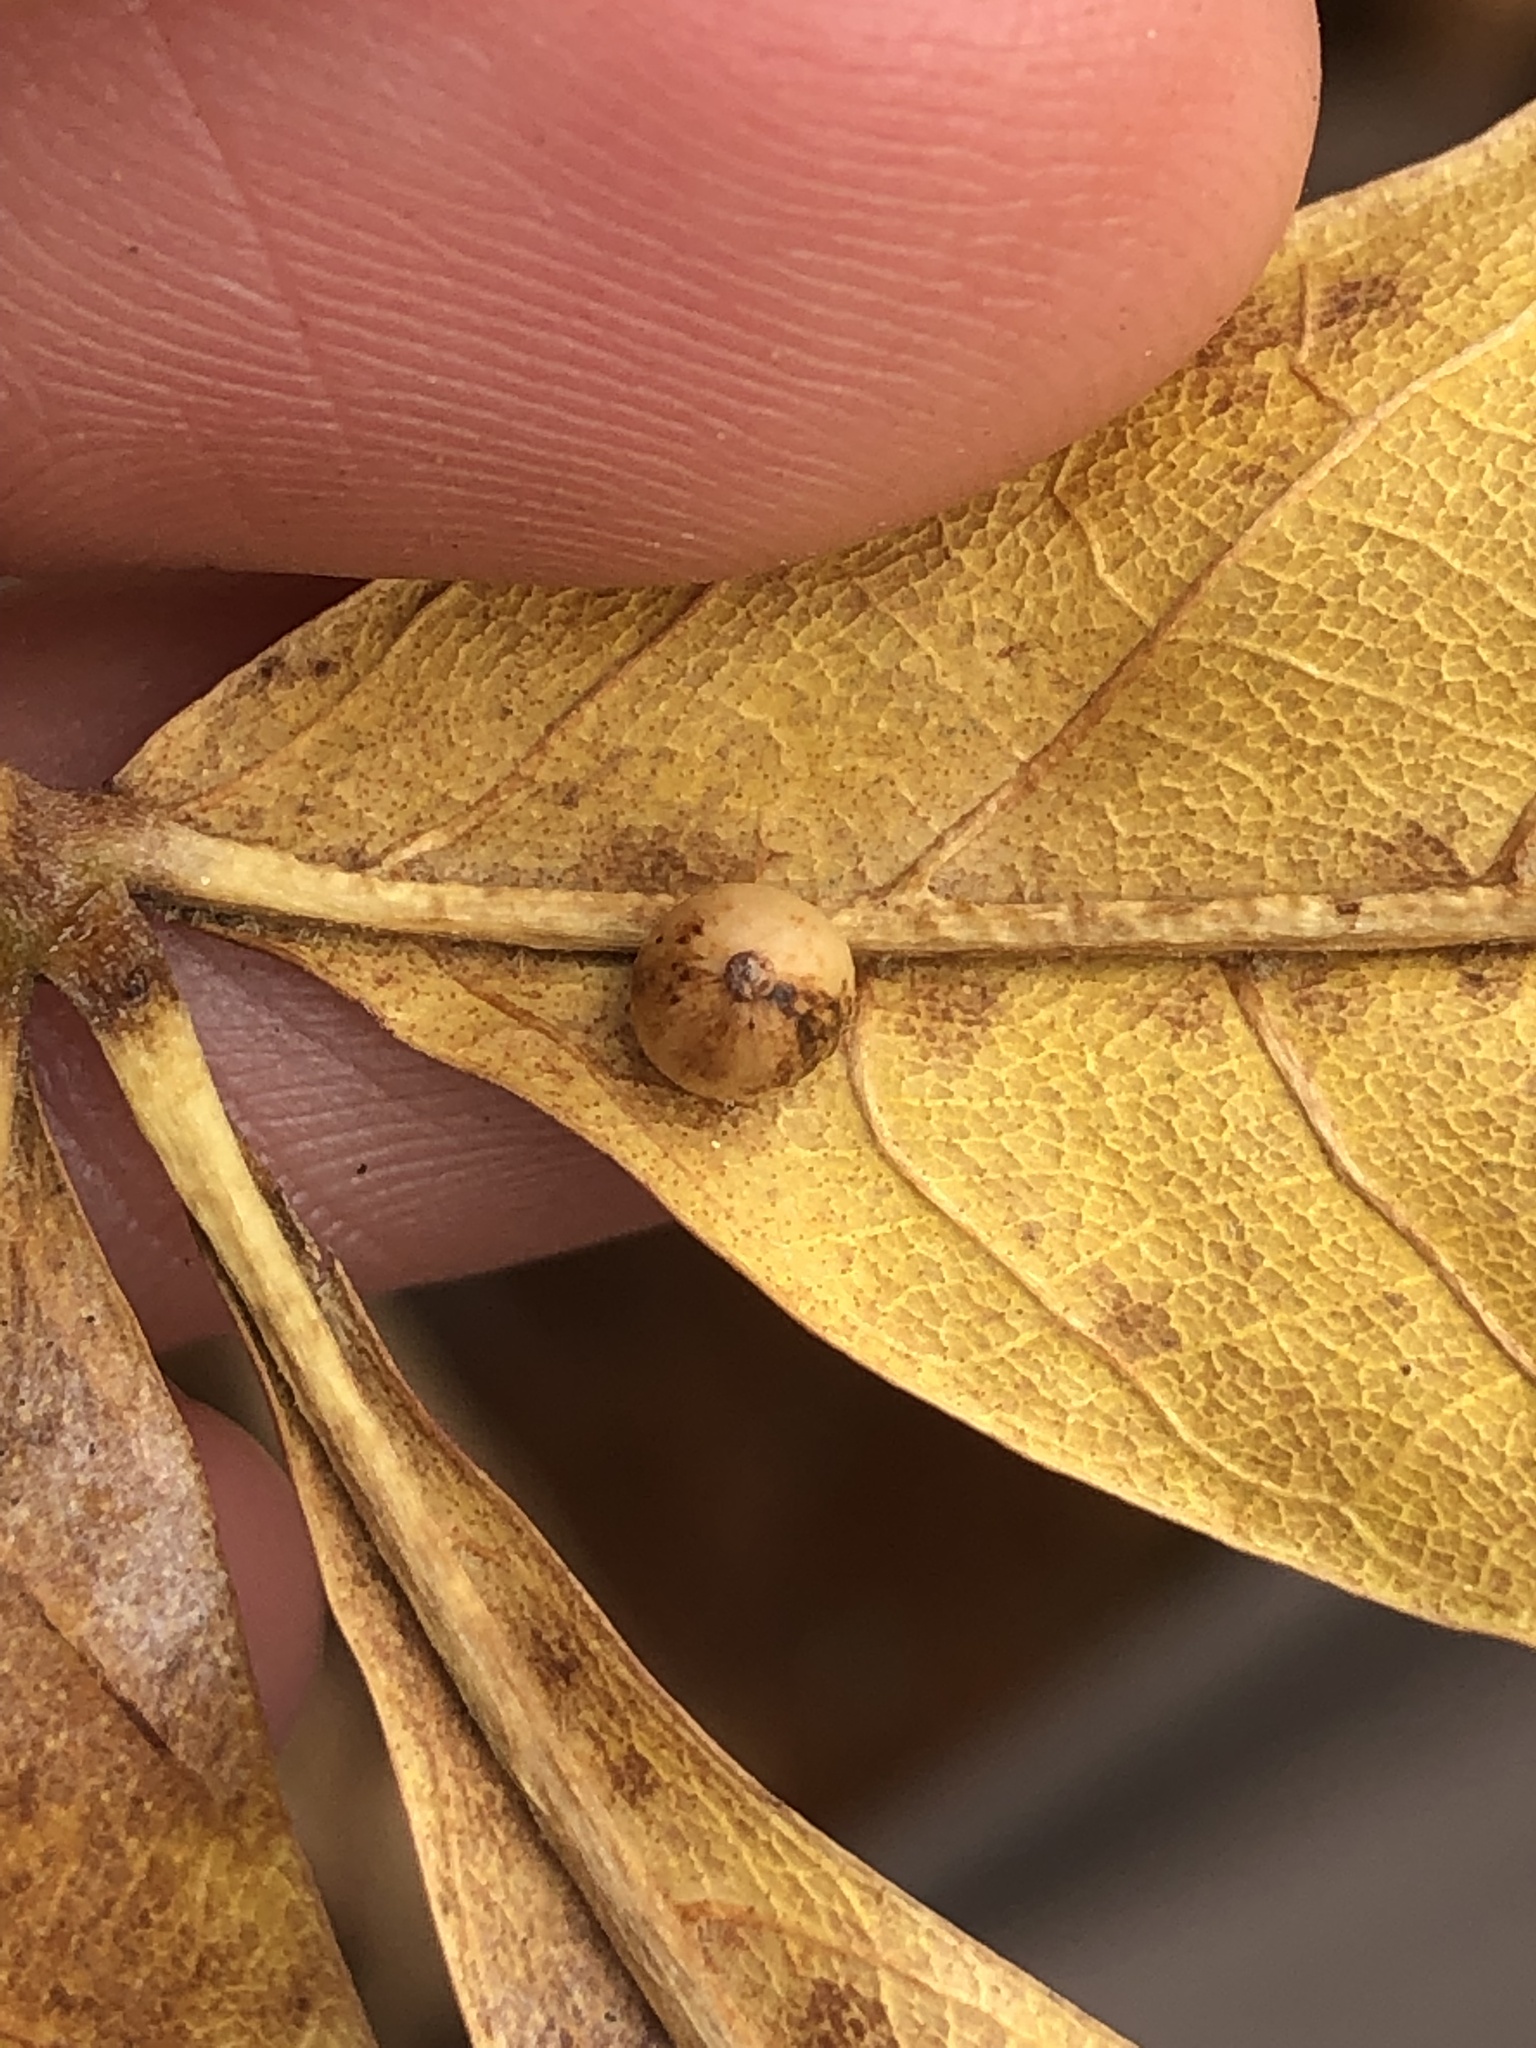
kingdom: Animalia
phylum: Arthropoda
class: Insecta
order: Diptera
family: Cecidomyiidae
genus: Caryomyia
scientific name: Caryomyia leviglobus
